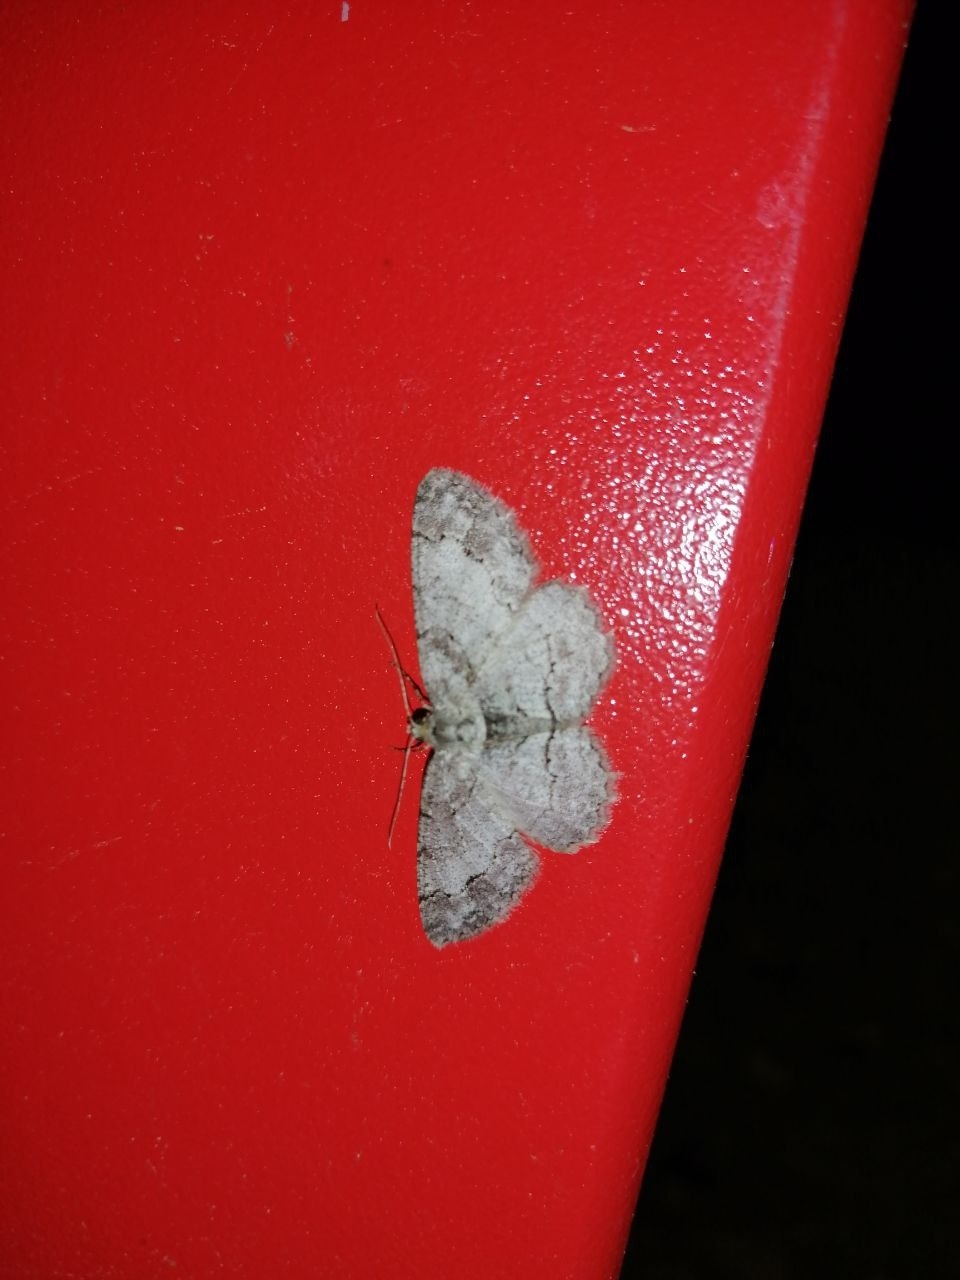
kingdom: Animalia
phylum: Arthropoda
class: Insecta
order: Lepidoptera
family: Geometridae
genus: Paradarisa
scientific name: Paradarisa consonaria
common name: Square spot
